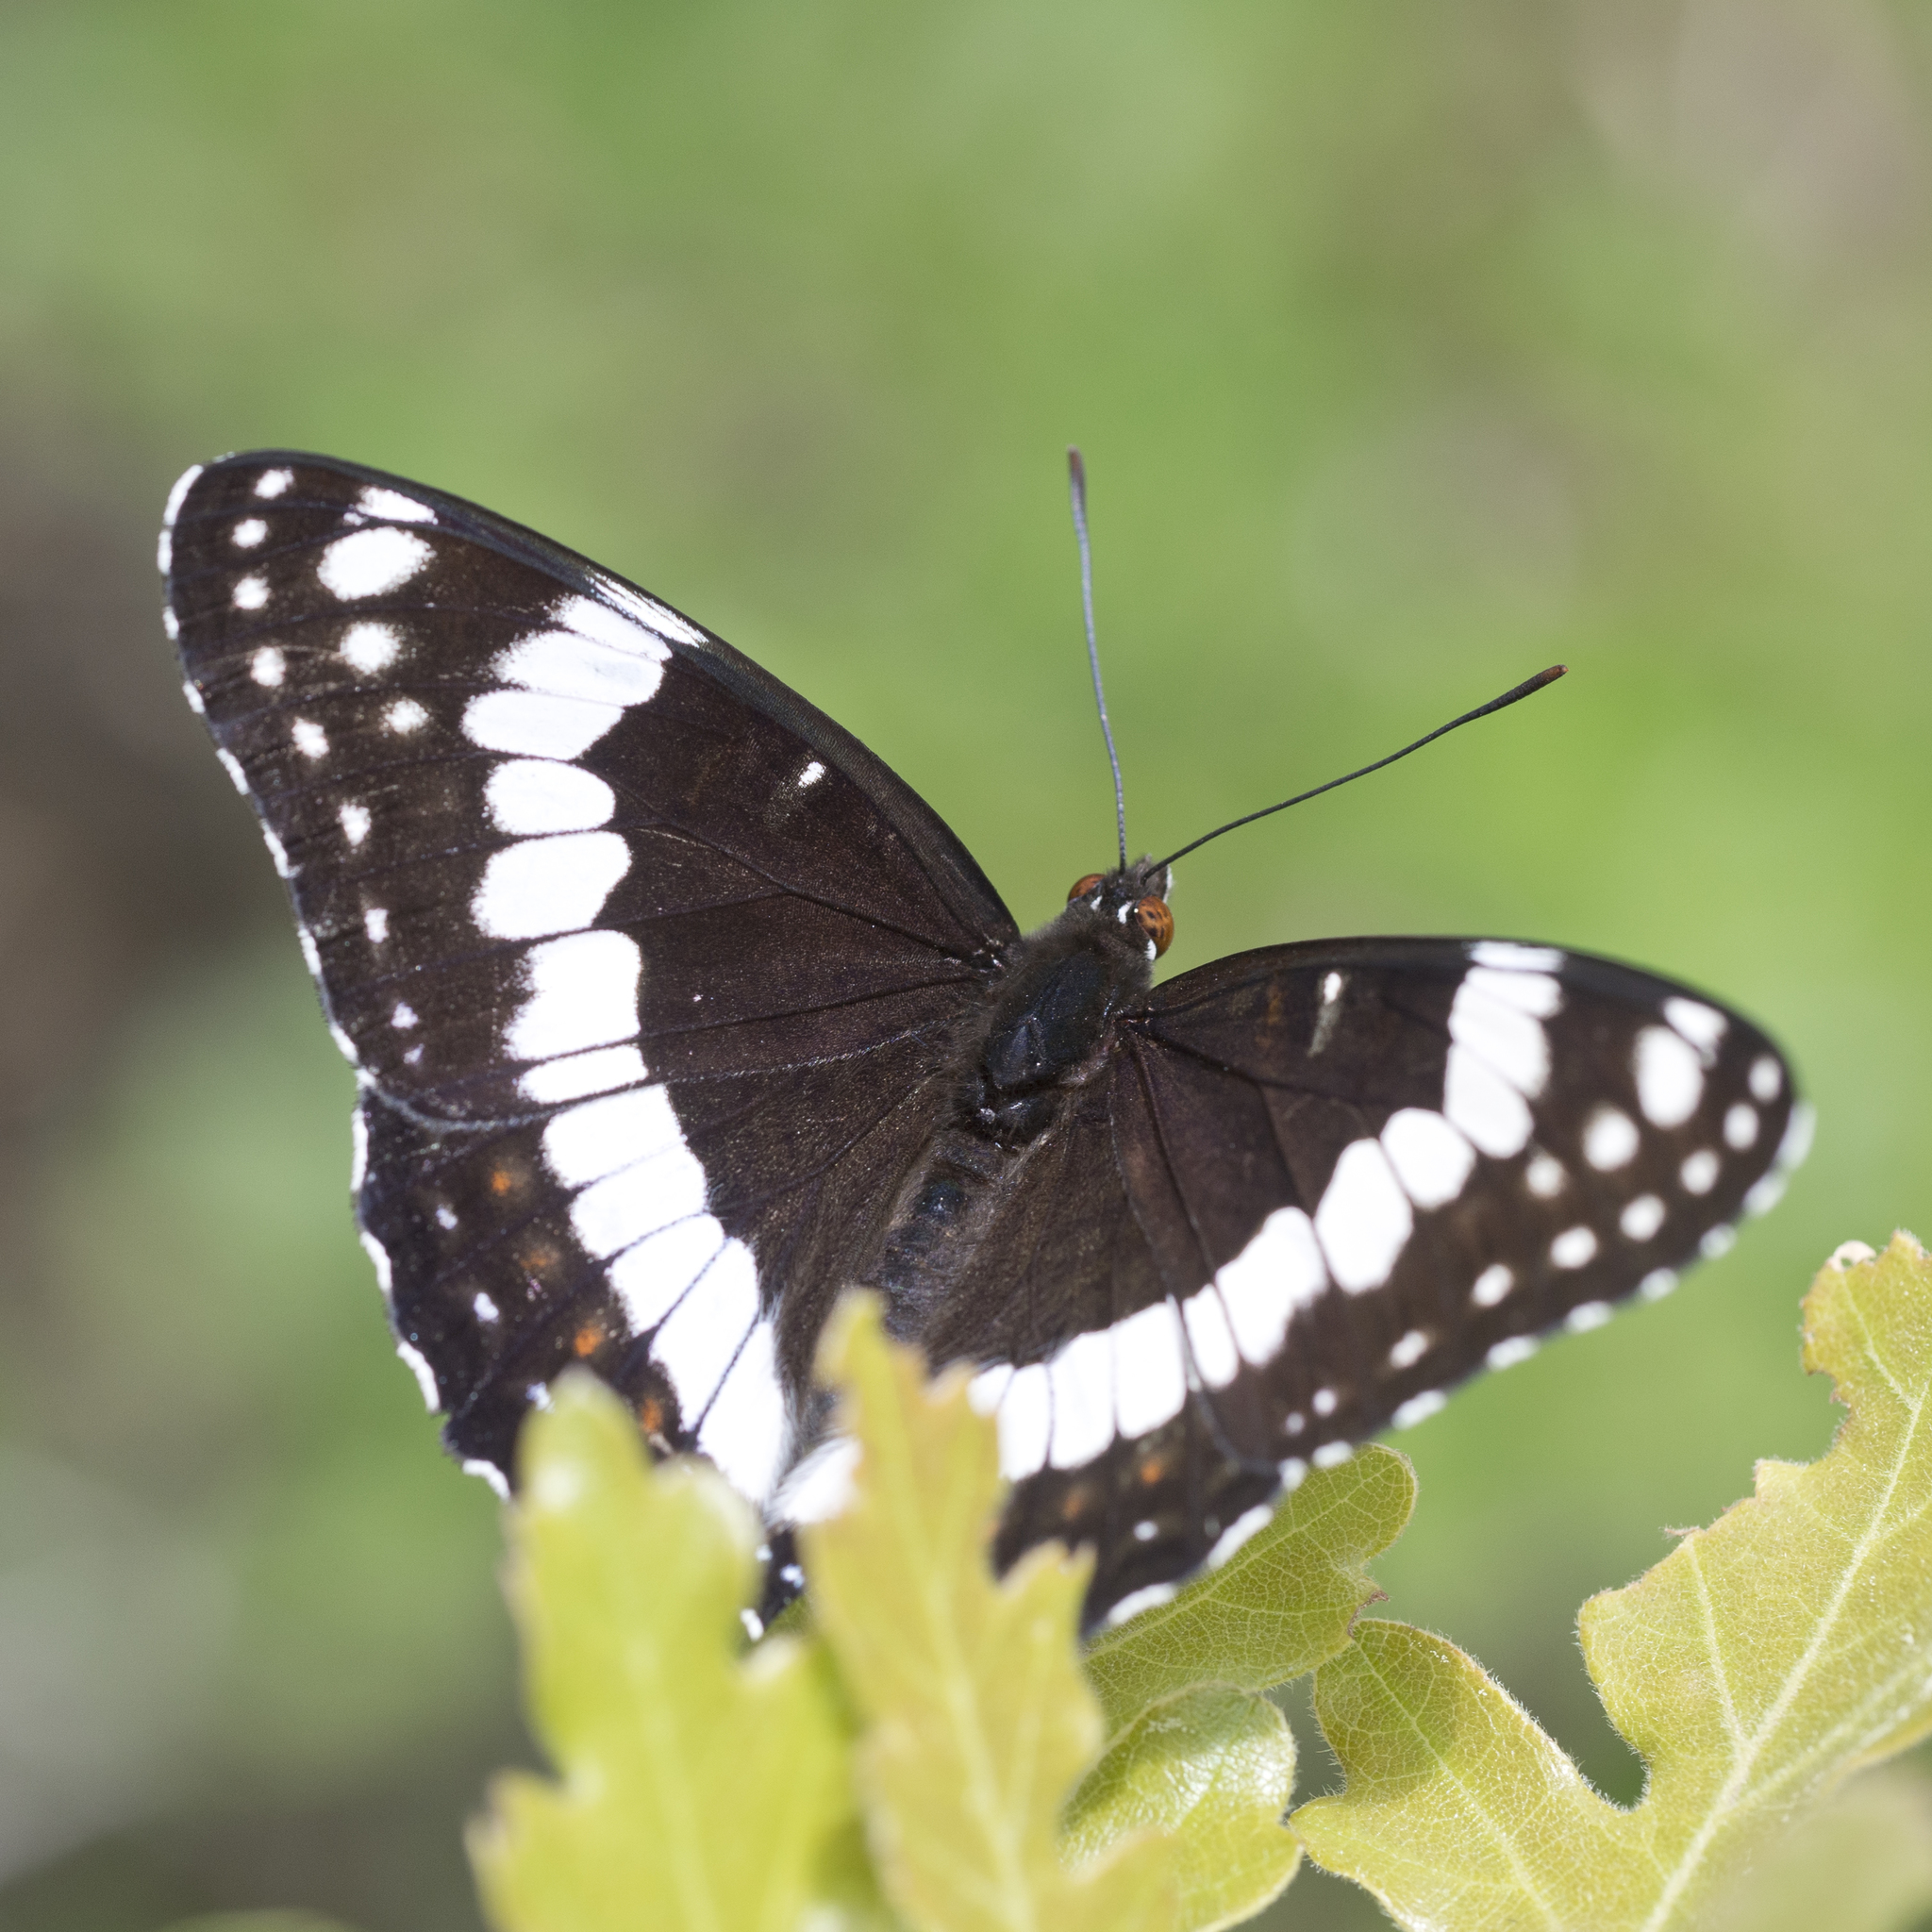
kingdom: Animalia
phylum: Arthropoda
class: Insecta
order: Lepidoptera
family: Nymphalidae
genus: Limenitis
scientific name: Limenitis weidemeyerii
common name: Weidemeyer's admiral
